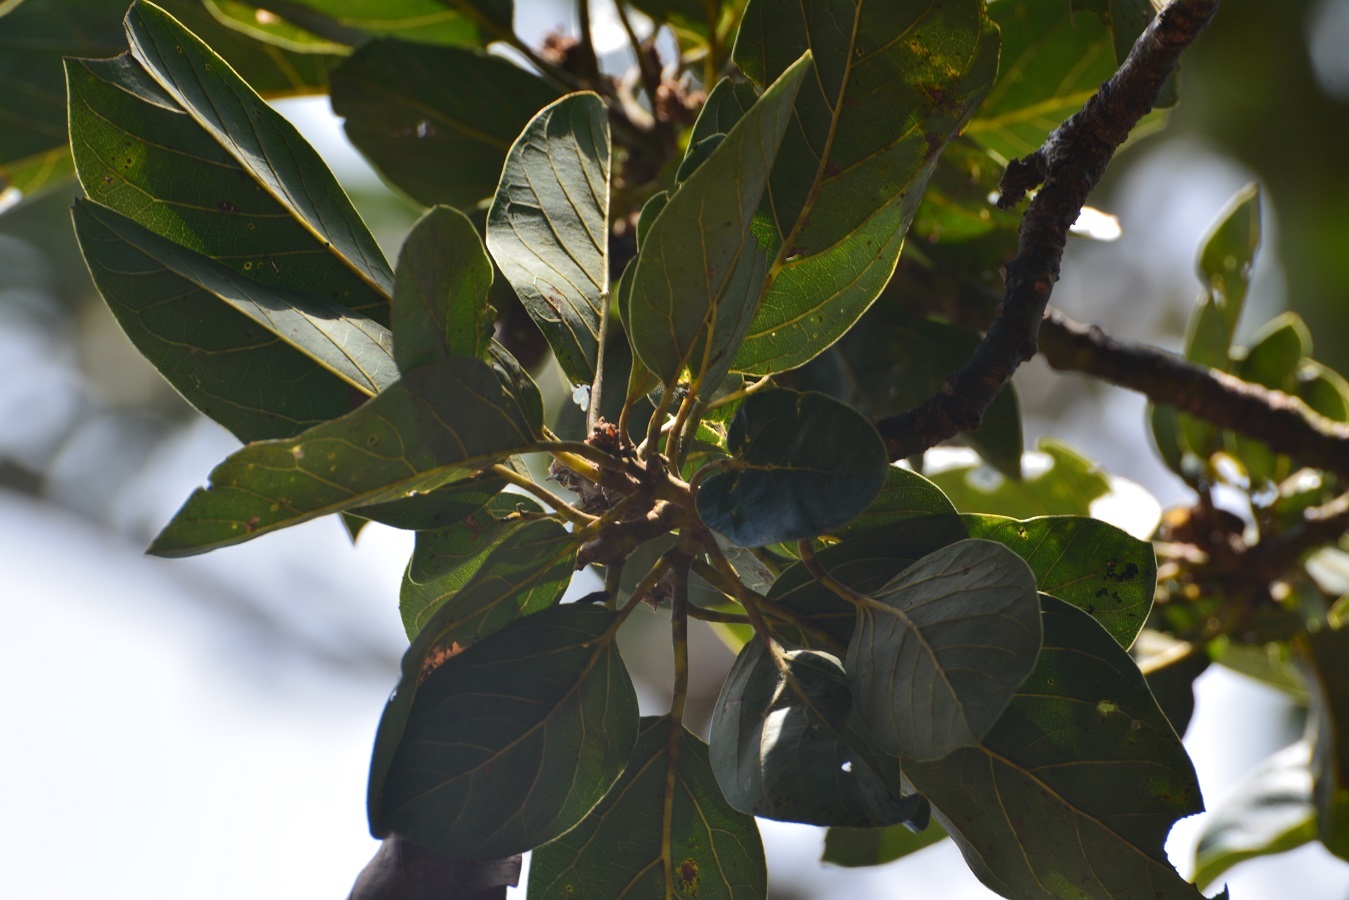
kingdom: Plantae
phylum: Tracheophyta
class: Magnoliopsida
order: Laurales
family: Lauraceae
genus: Persea
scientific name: Persea americana
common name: Avocado
